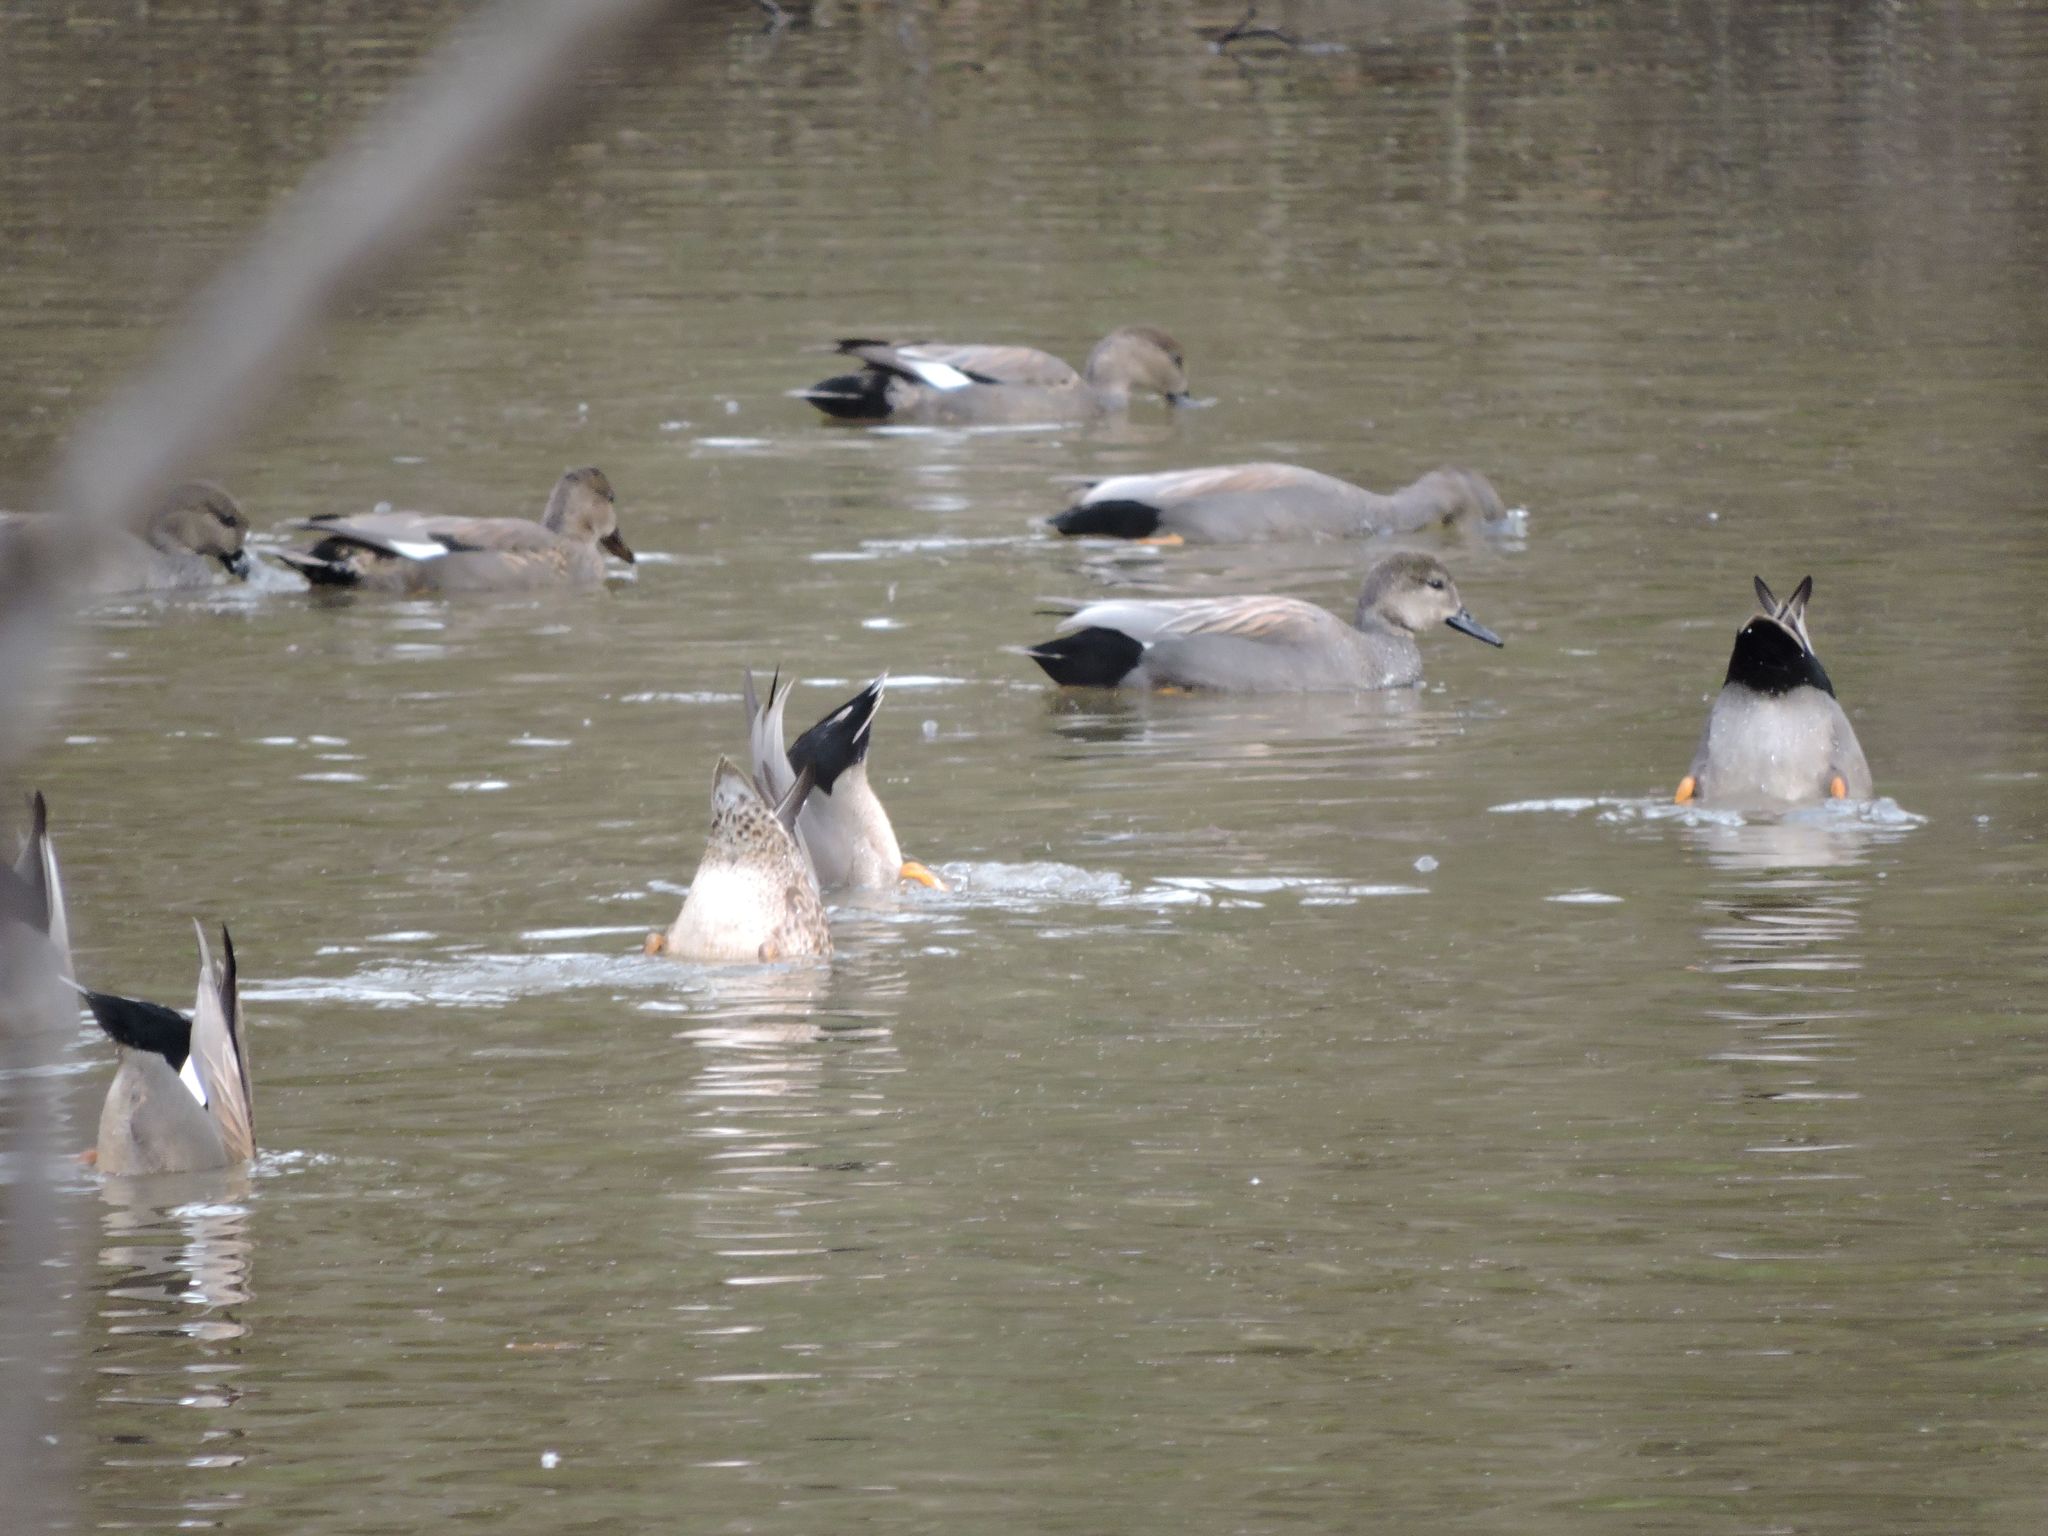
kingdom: Animalia
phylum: Chordata
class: Aves
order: Anseriformes
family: Anatidae
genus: Mareca
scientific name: Mareca strepera
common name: Gadwall
